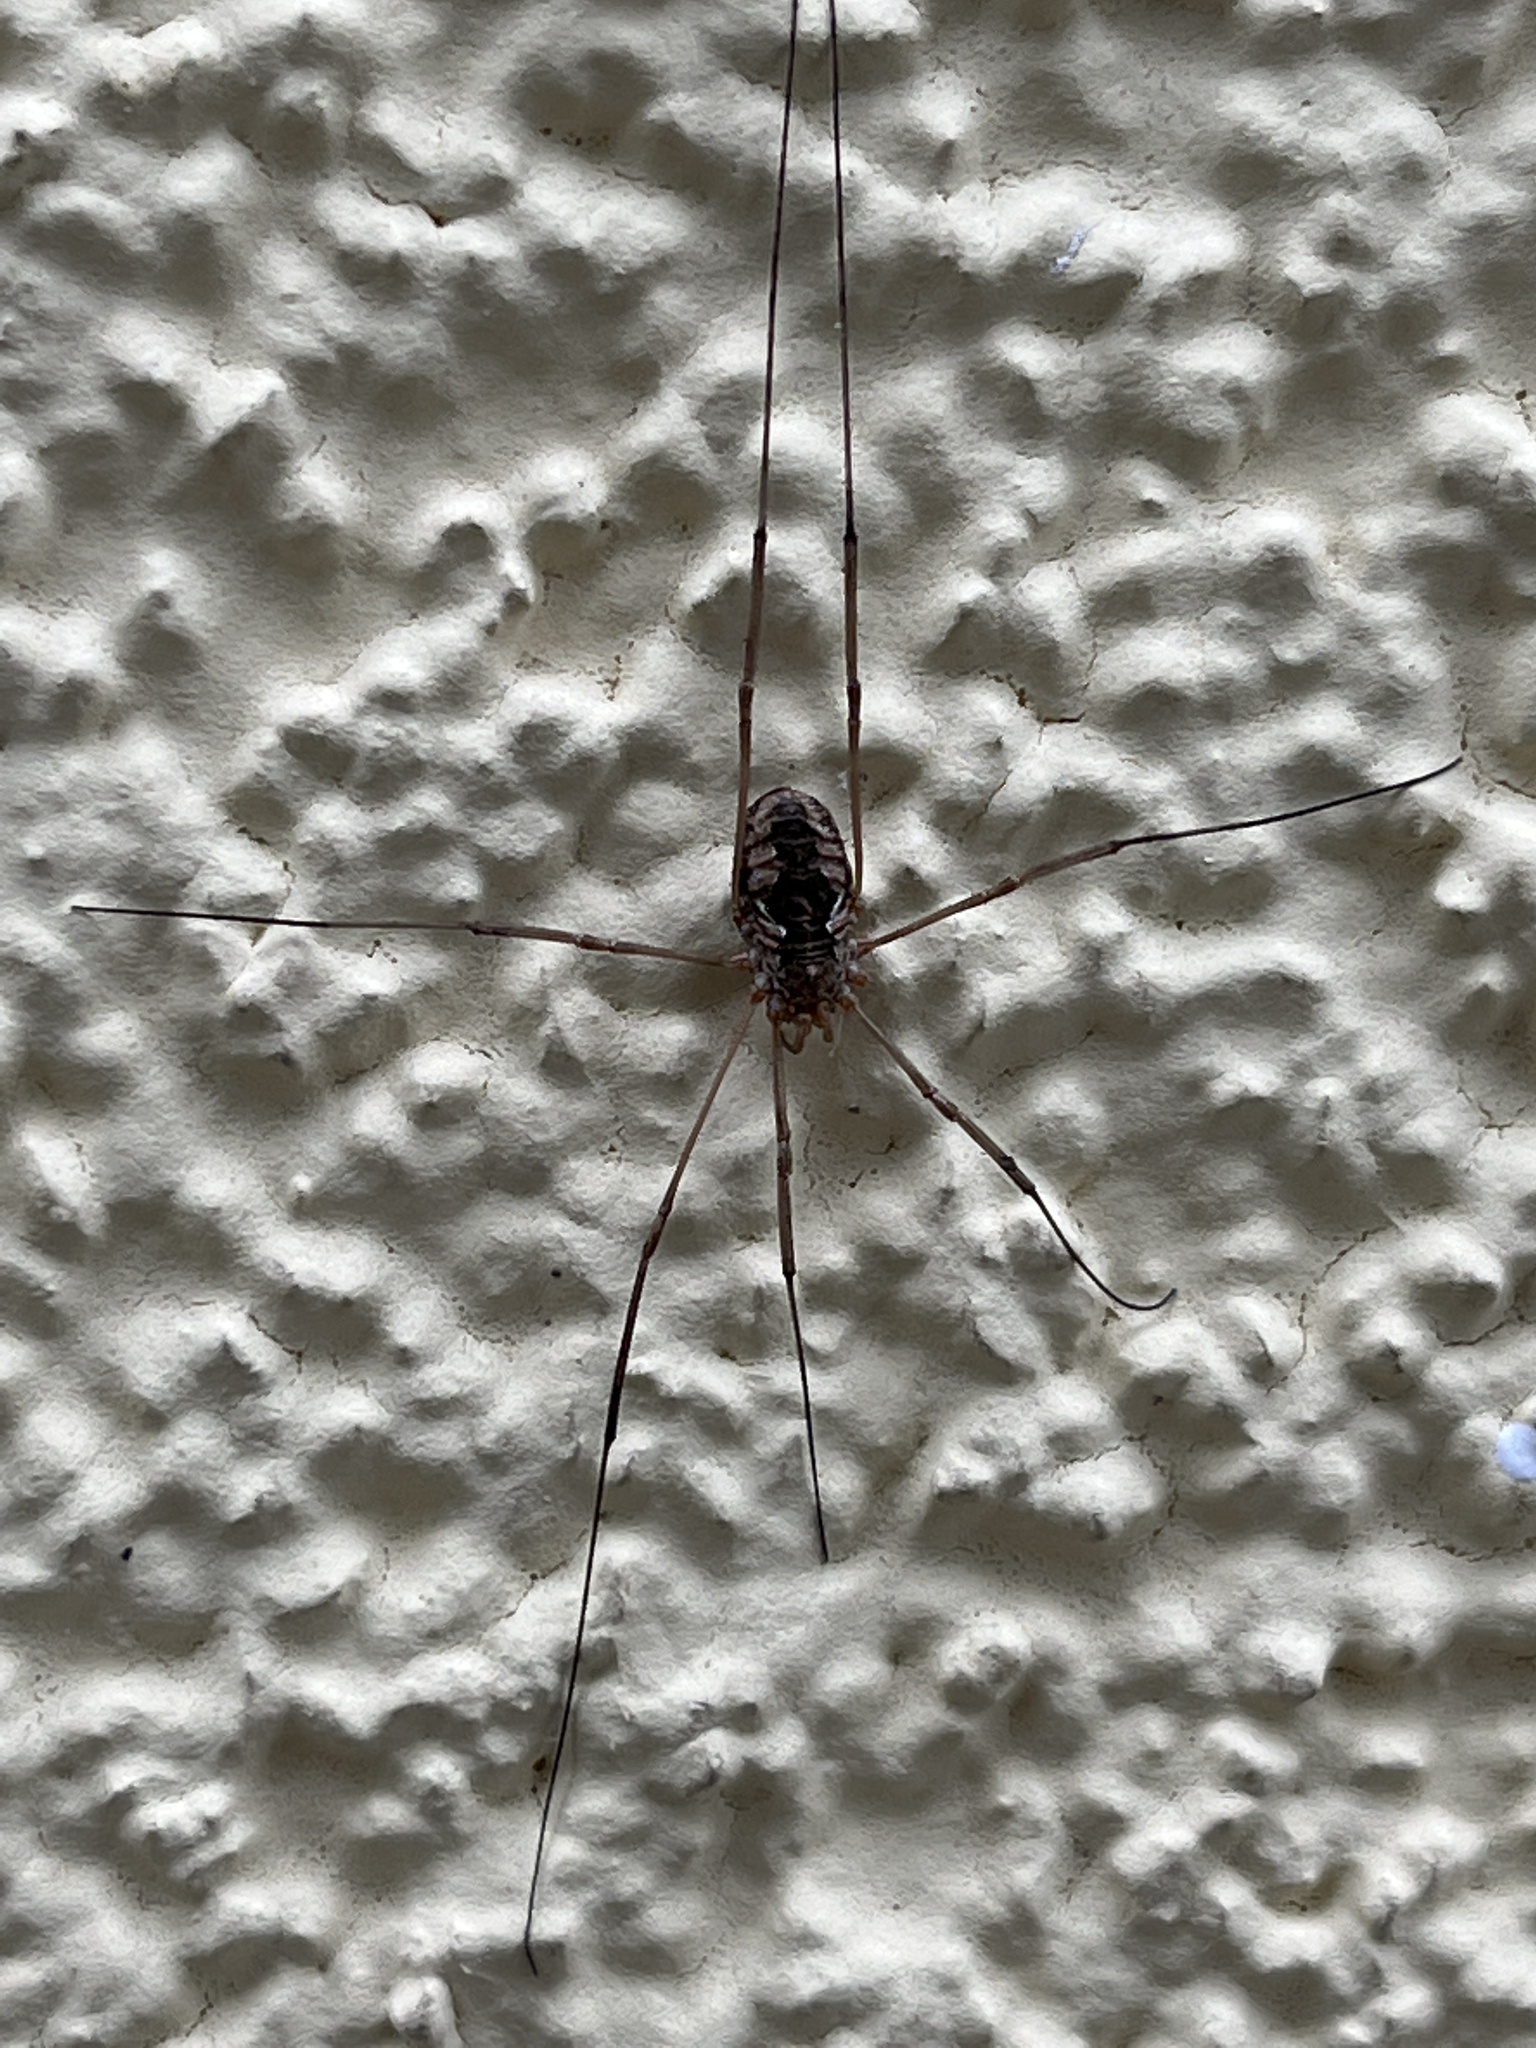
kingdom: Animalia
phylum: Arthropoda
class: Arachnida
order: Opiliones
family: Phalangiidae
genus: Phalangium
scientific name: Phalangium opilio
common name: Daddy longleg
